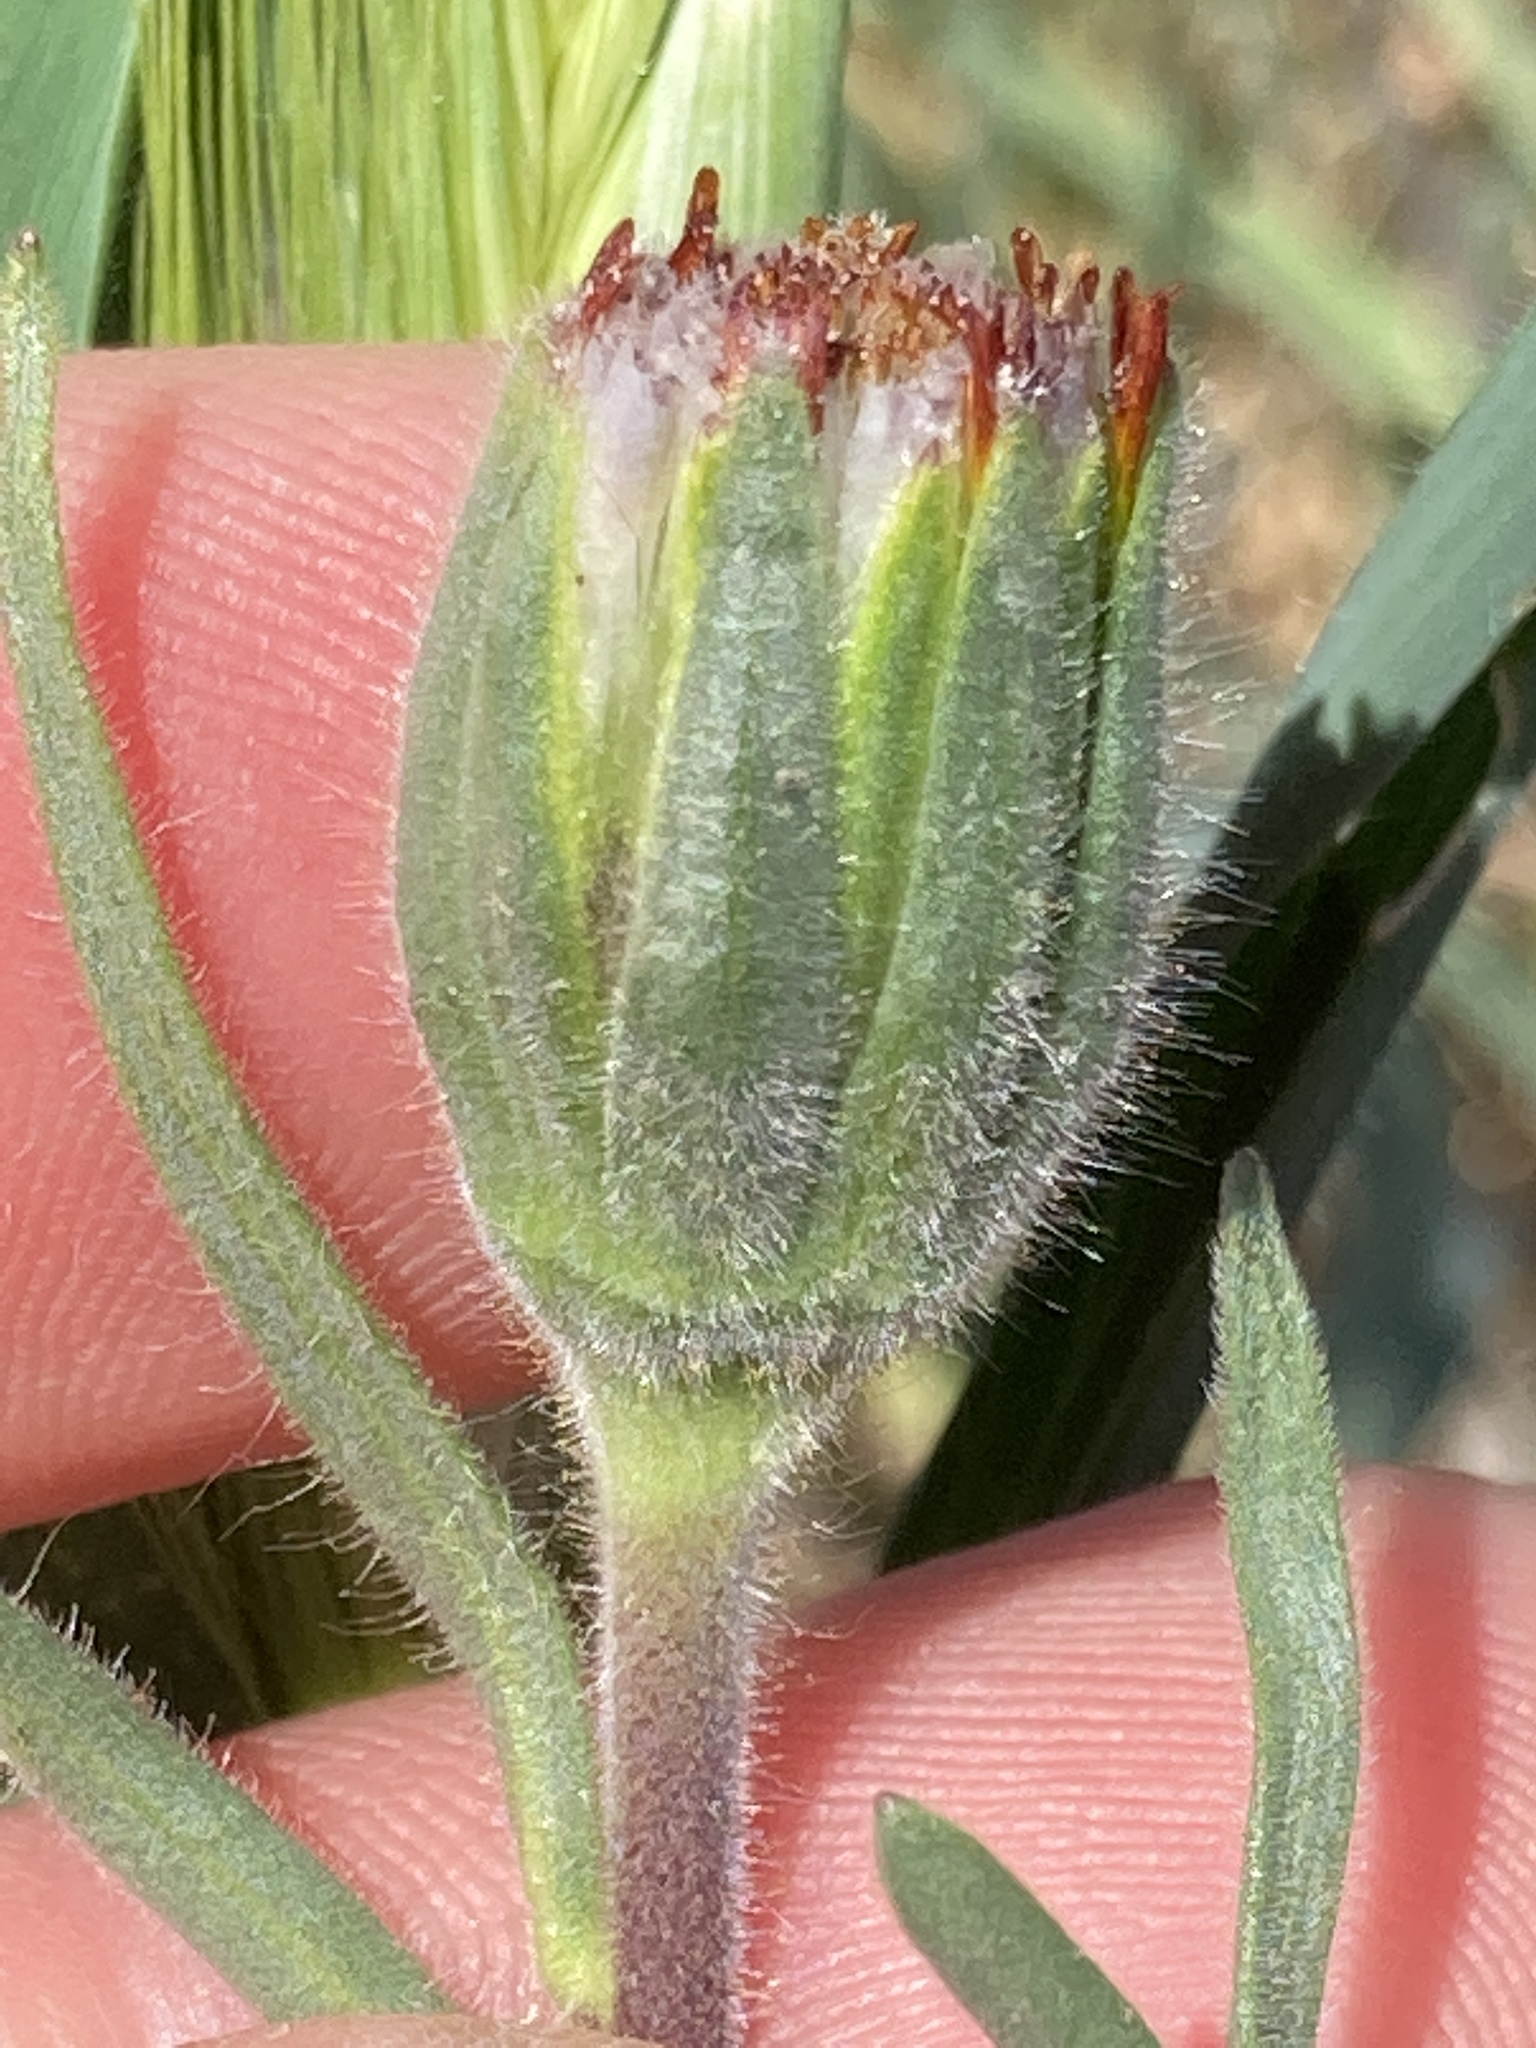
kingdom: Plantae
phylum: Tracheophyta
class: Magnoliopsida
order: Asterales
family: Asteraceae
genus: Achyrachaena
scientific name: Achyrachaena mollis
